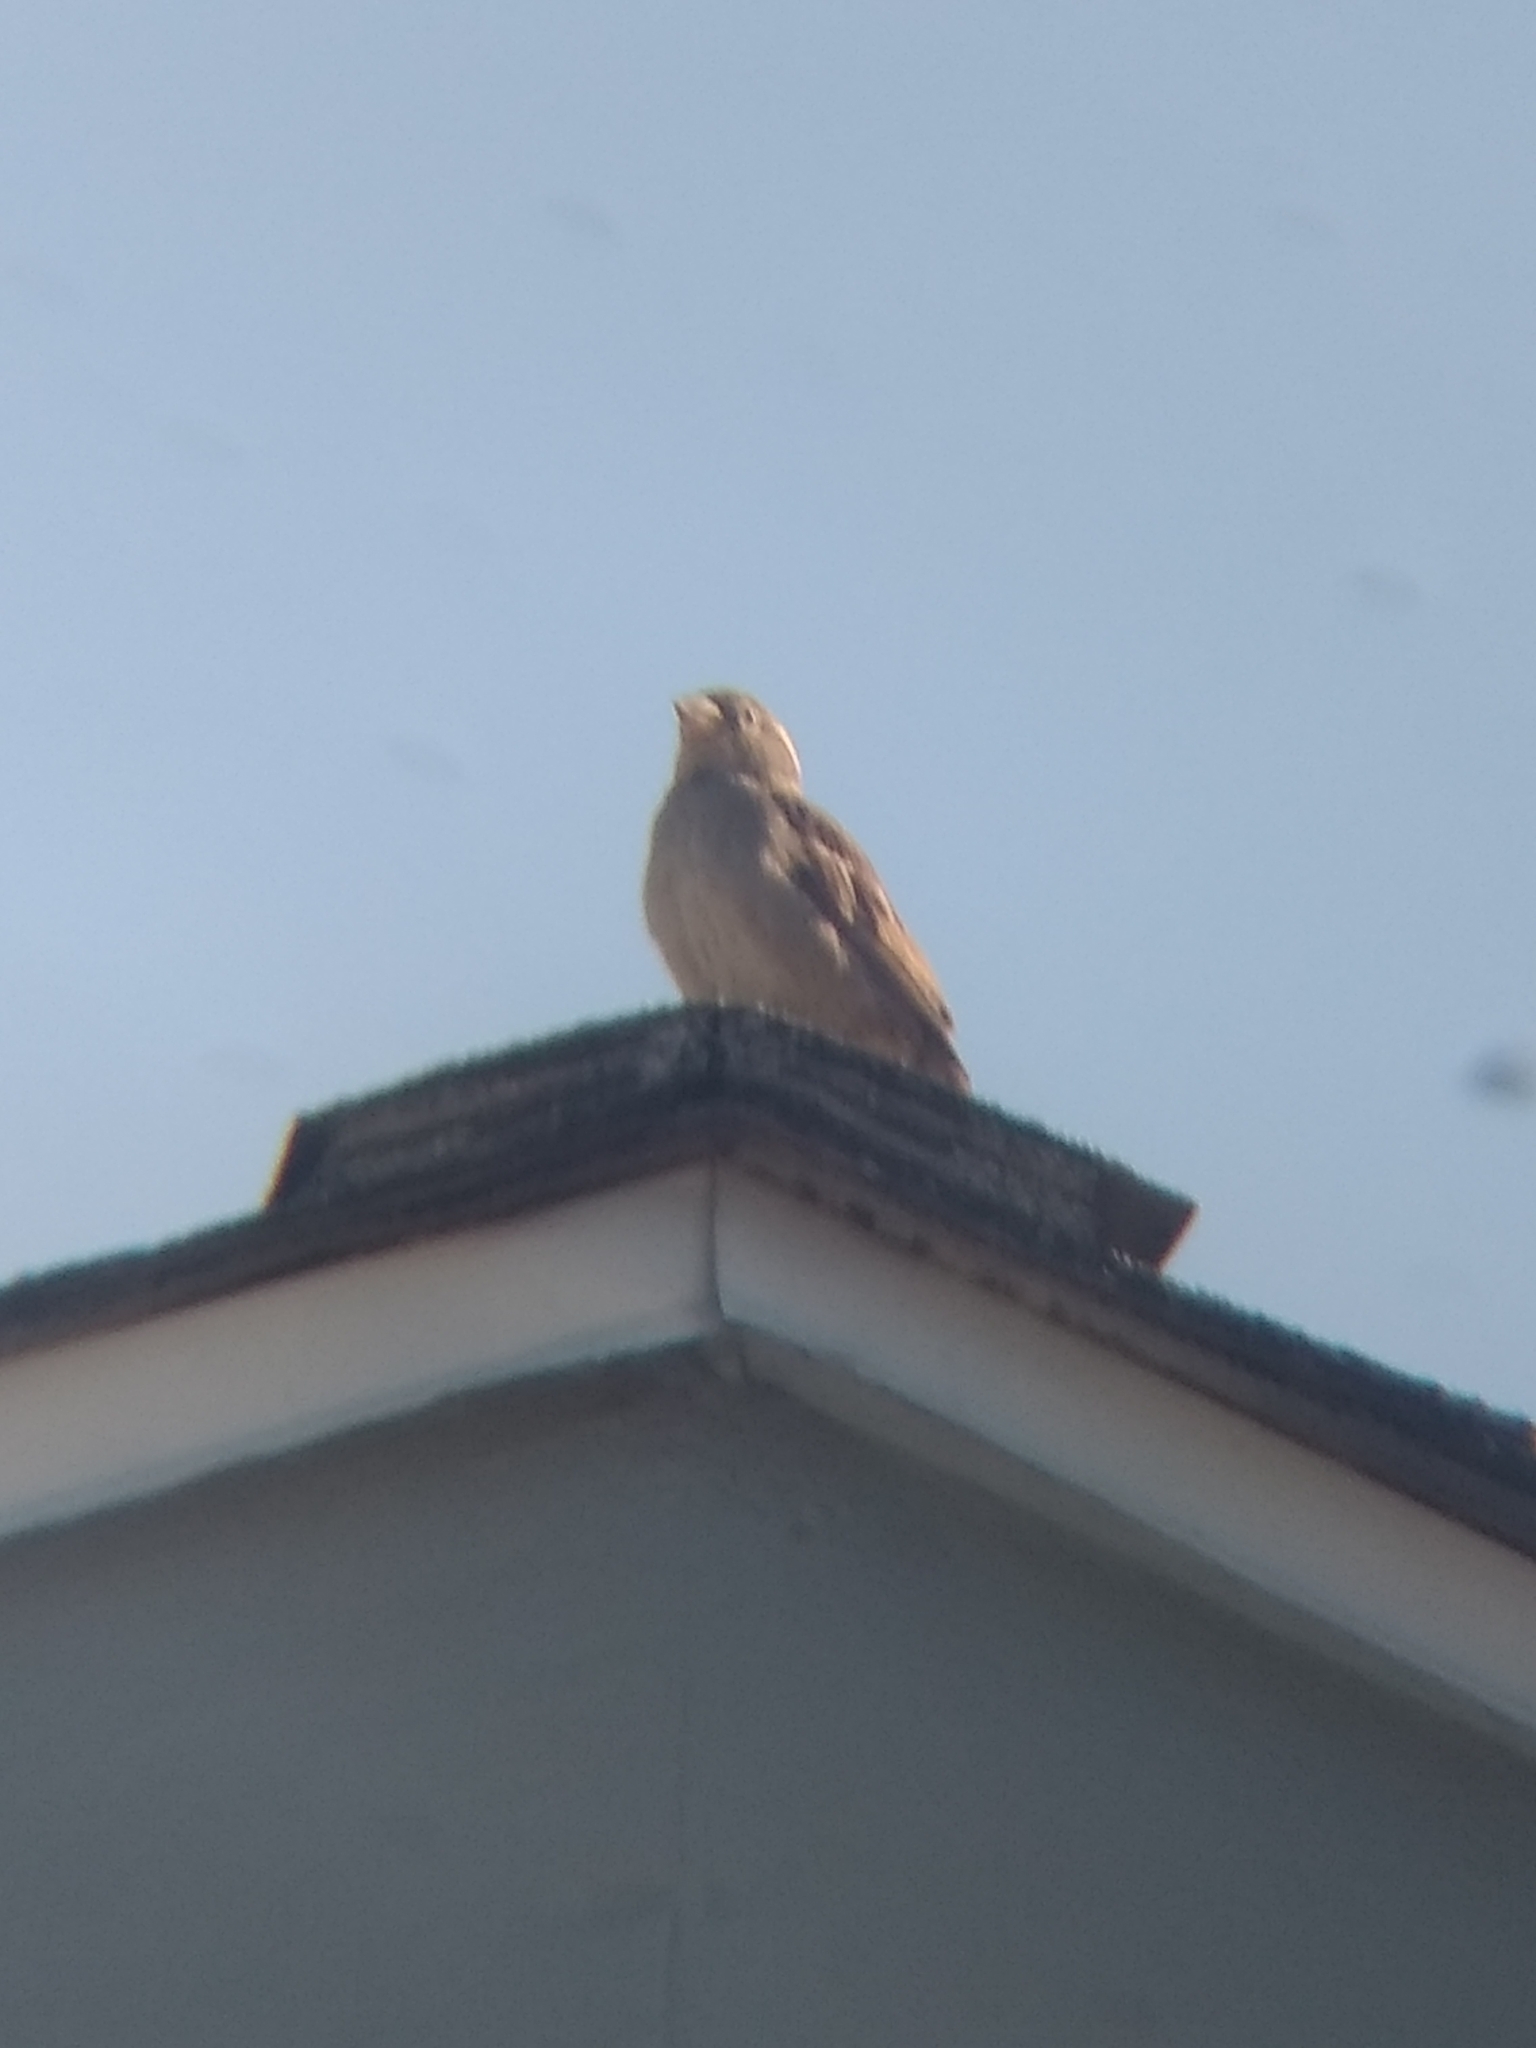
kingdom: Animalia
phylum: Chordata
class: Aves
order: Passeriformes
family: Passeridae
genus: Passer
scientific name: Passer domesticus
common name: House sparrow
